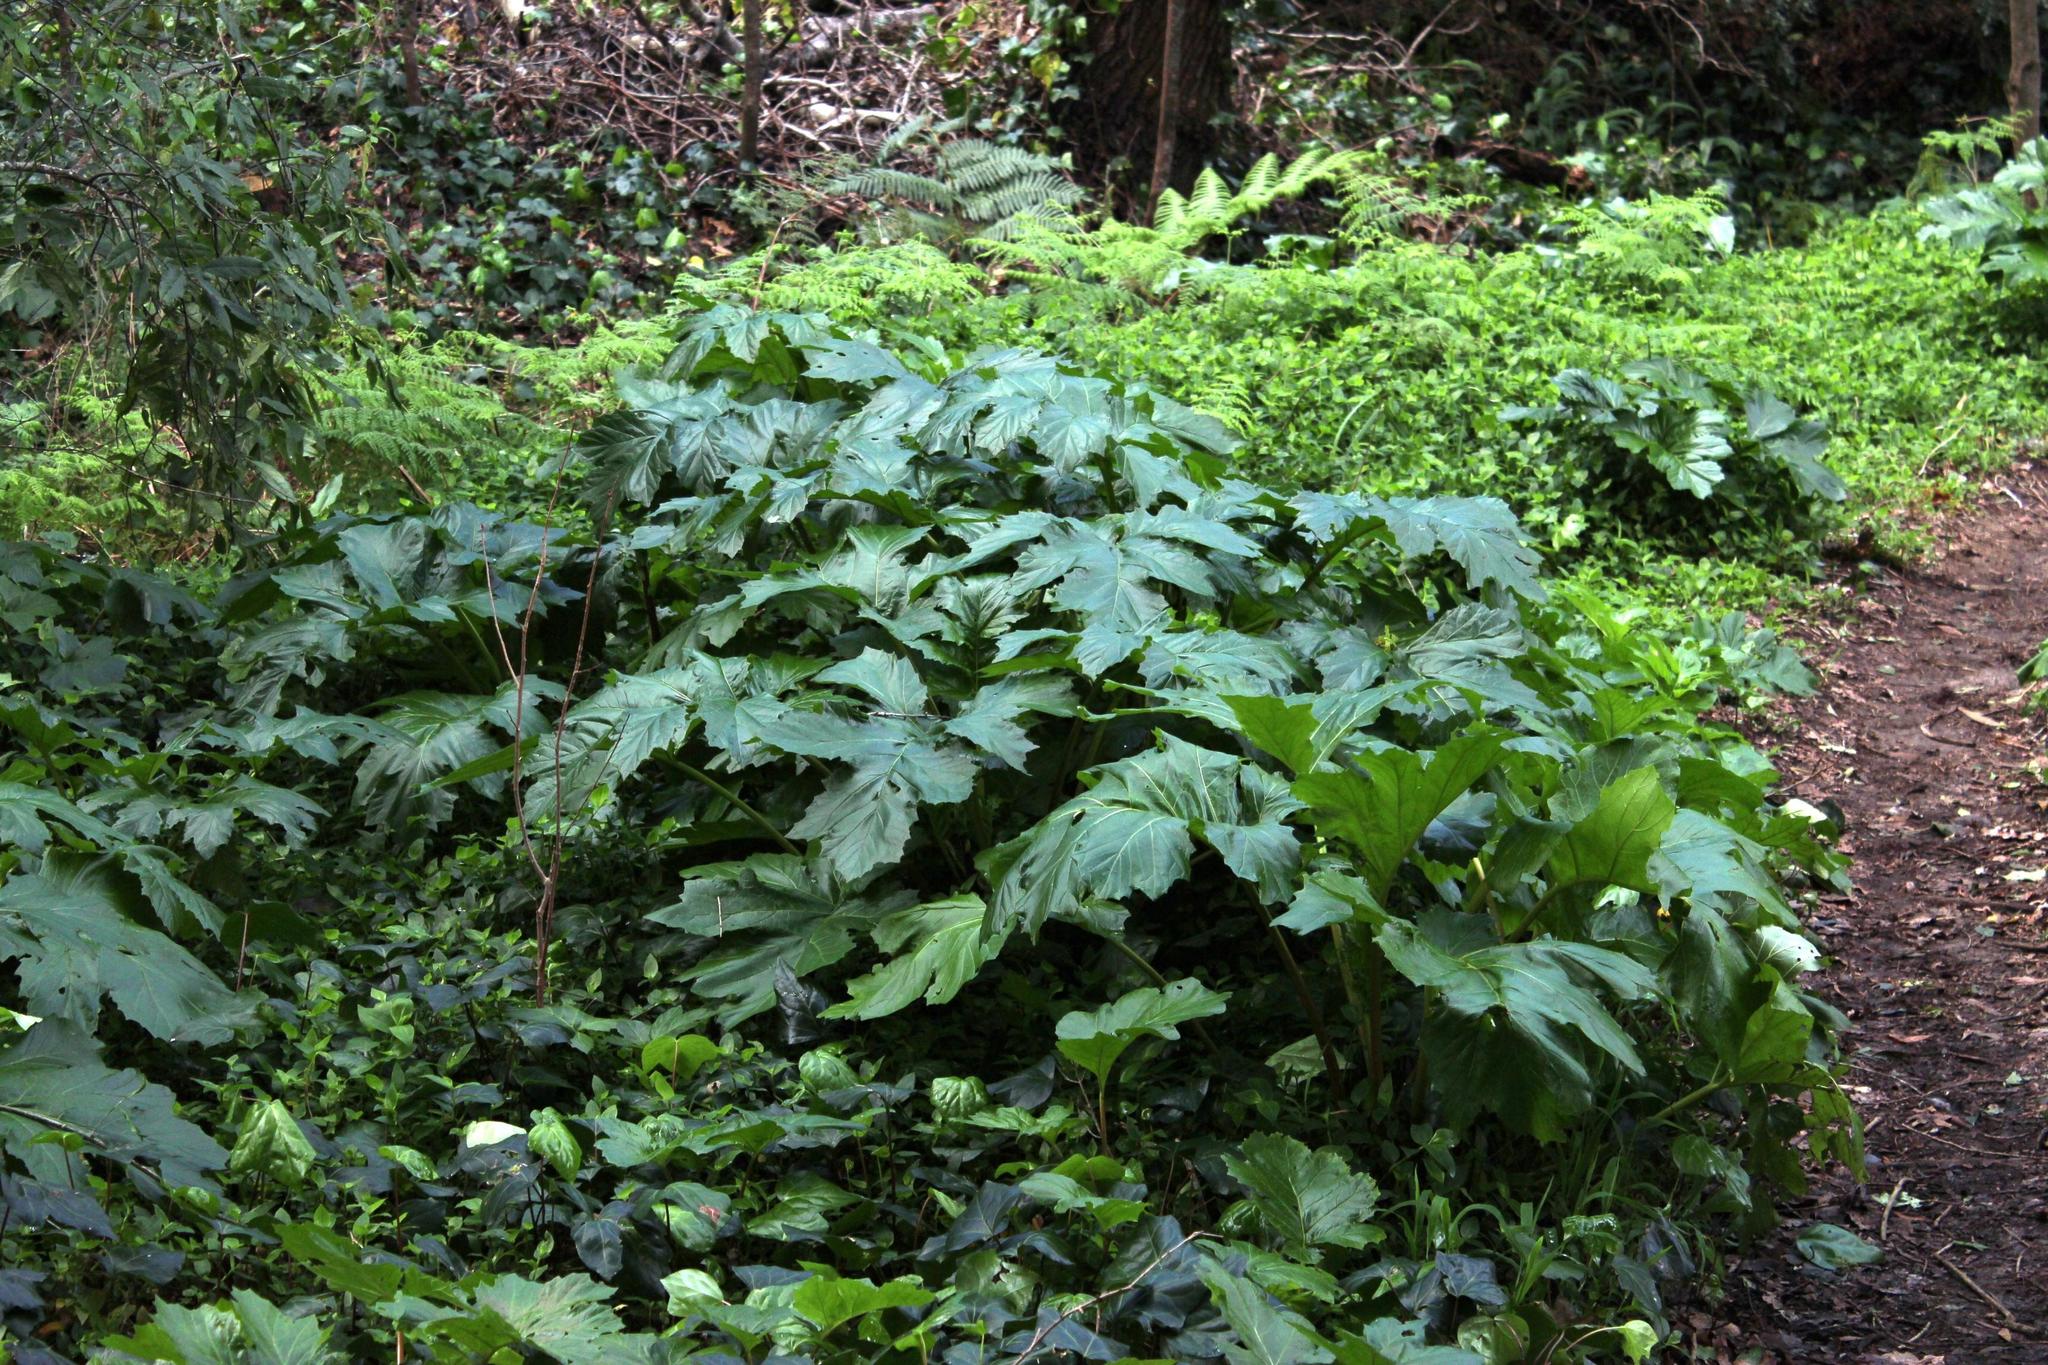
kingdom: Plantae
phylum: Tracheophyta
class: Magnoliopsida
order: Lamiales
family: Acanthaceae
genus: Acanthus
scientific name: Acanthus mollis
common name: Bear's-breech
